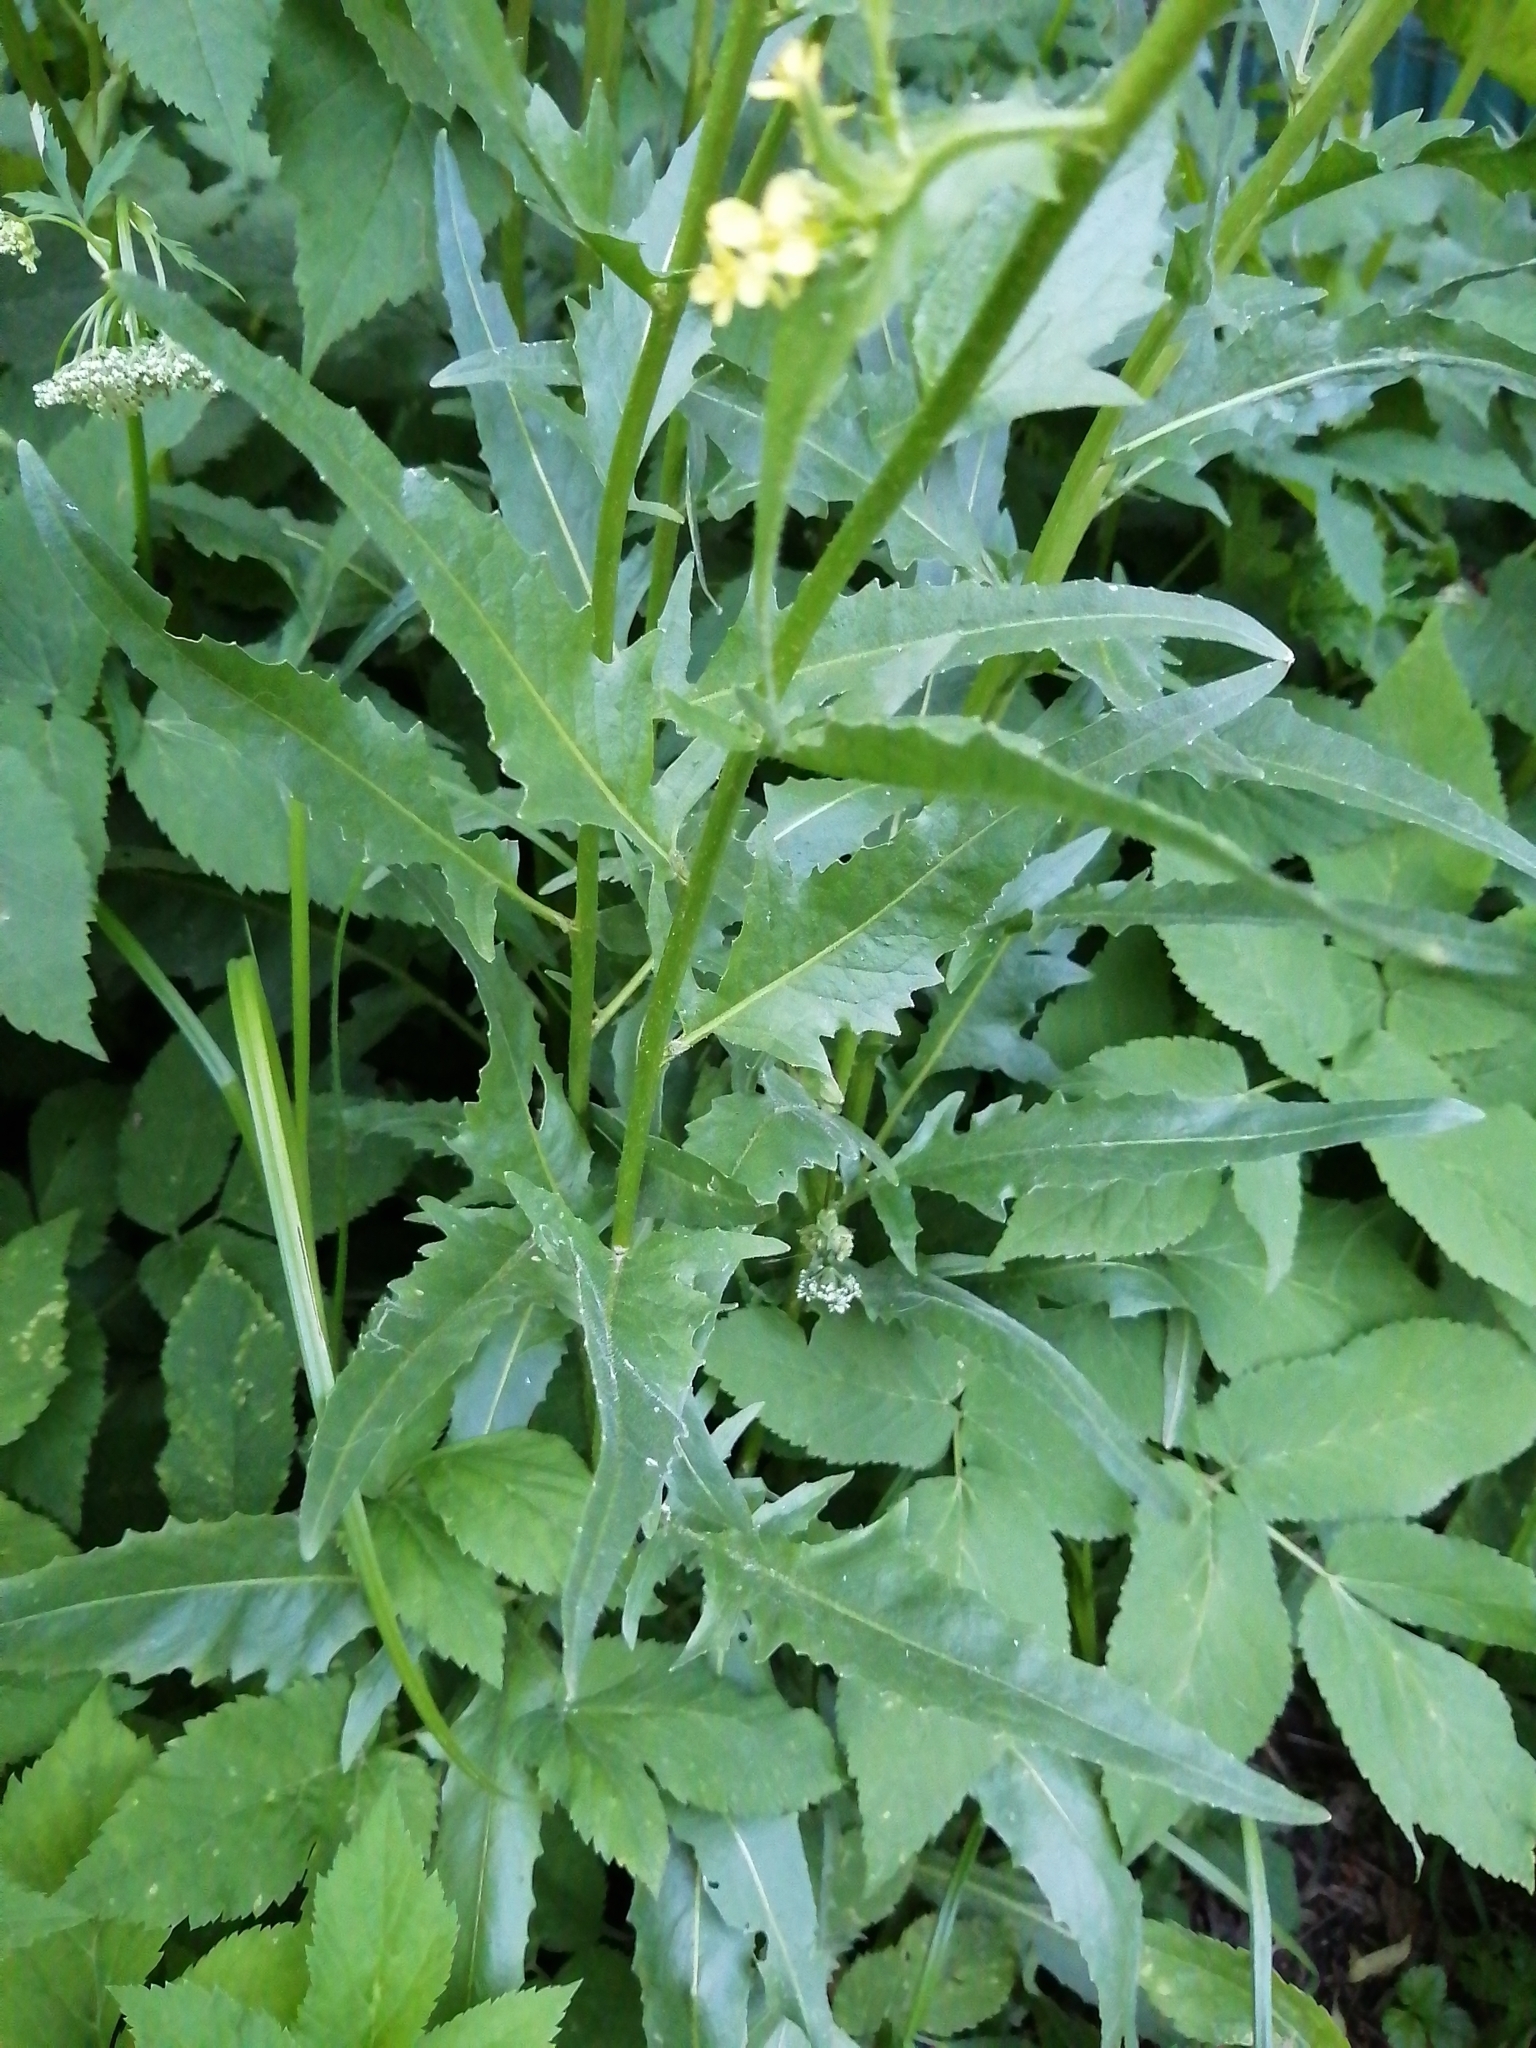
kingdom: Plantae
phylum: Tracheophyta
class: Magnoliopsida
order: Brassicales
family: Brassicaceae
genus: Bunias
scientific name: Bunias orientalis
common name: Warty-cabbage
